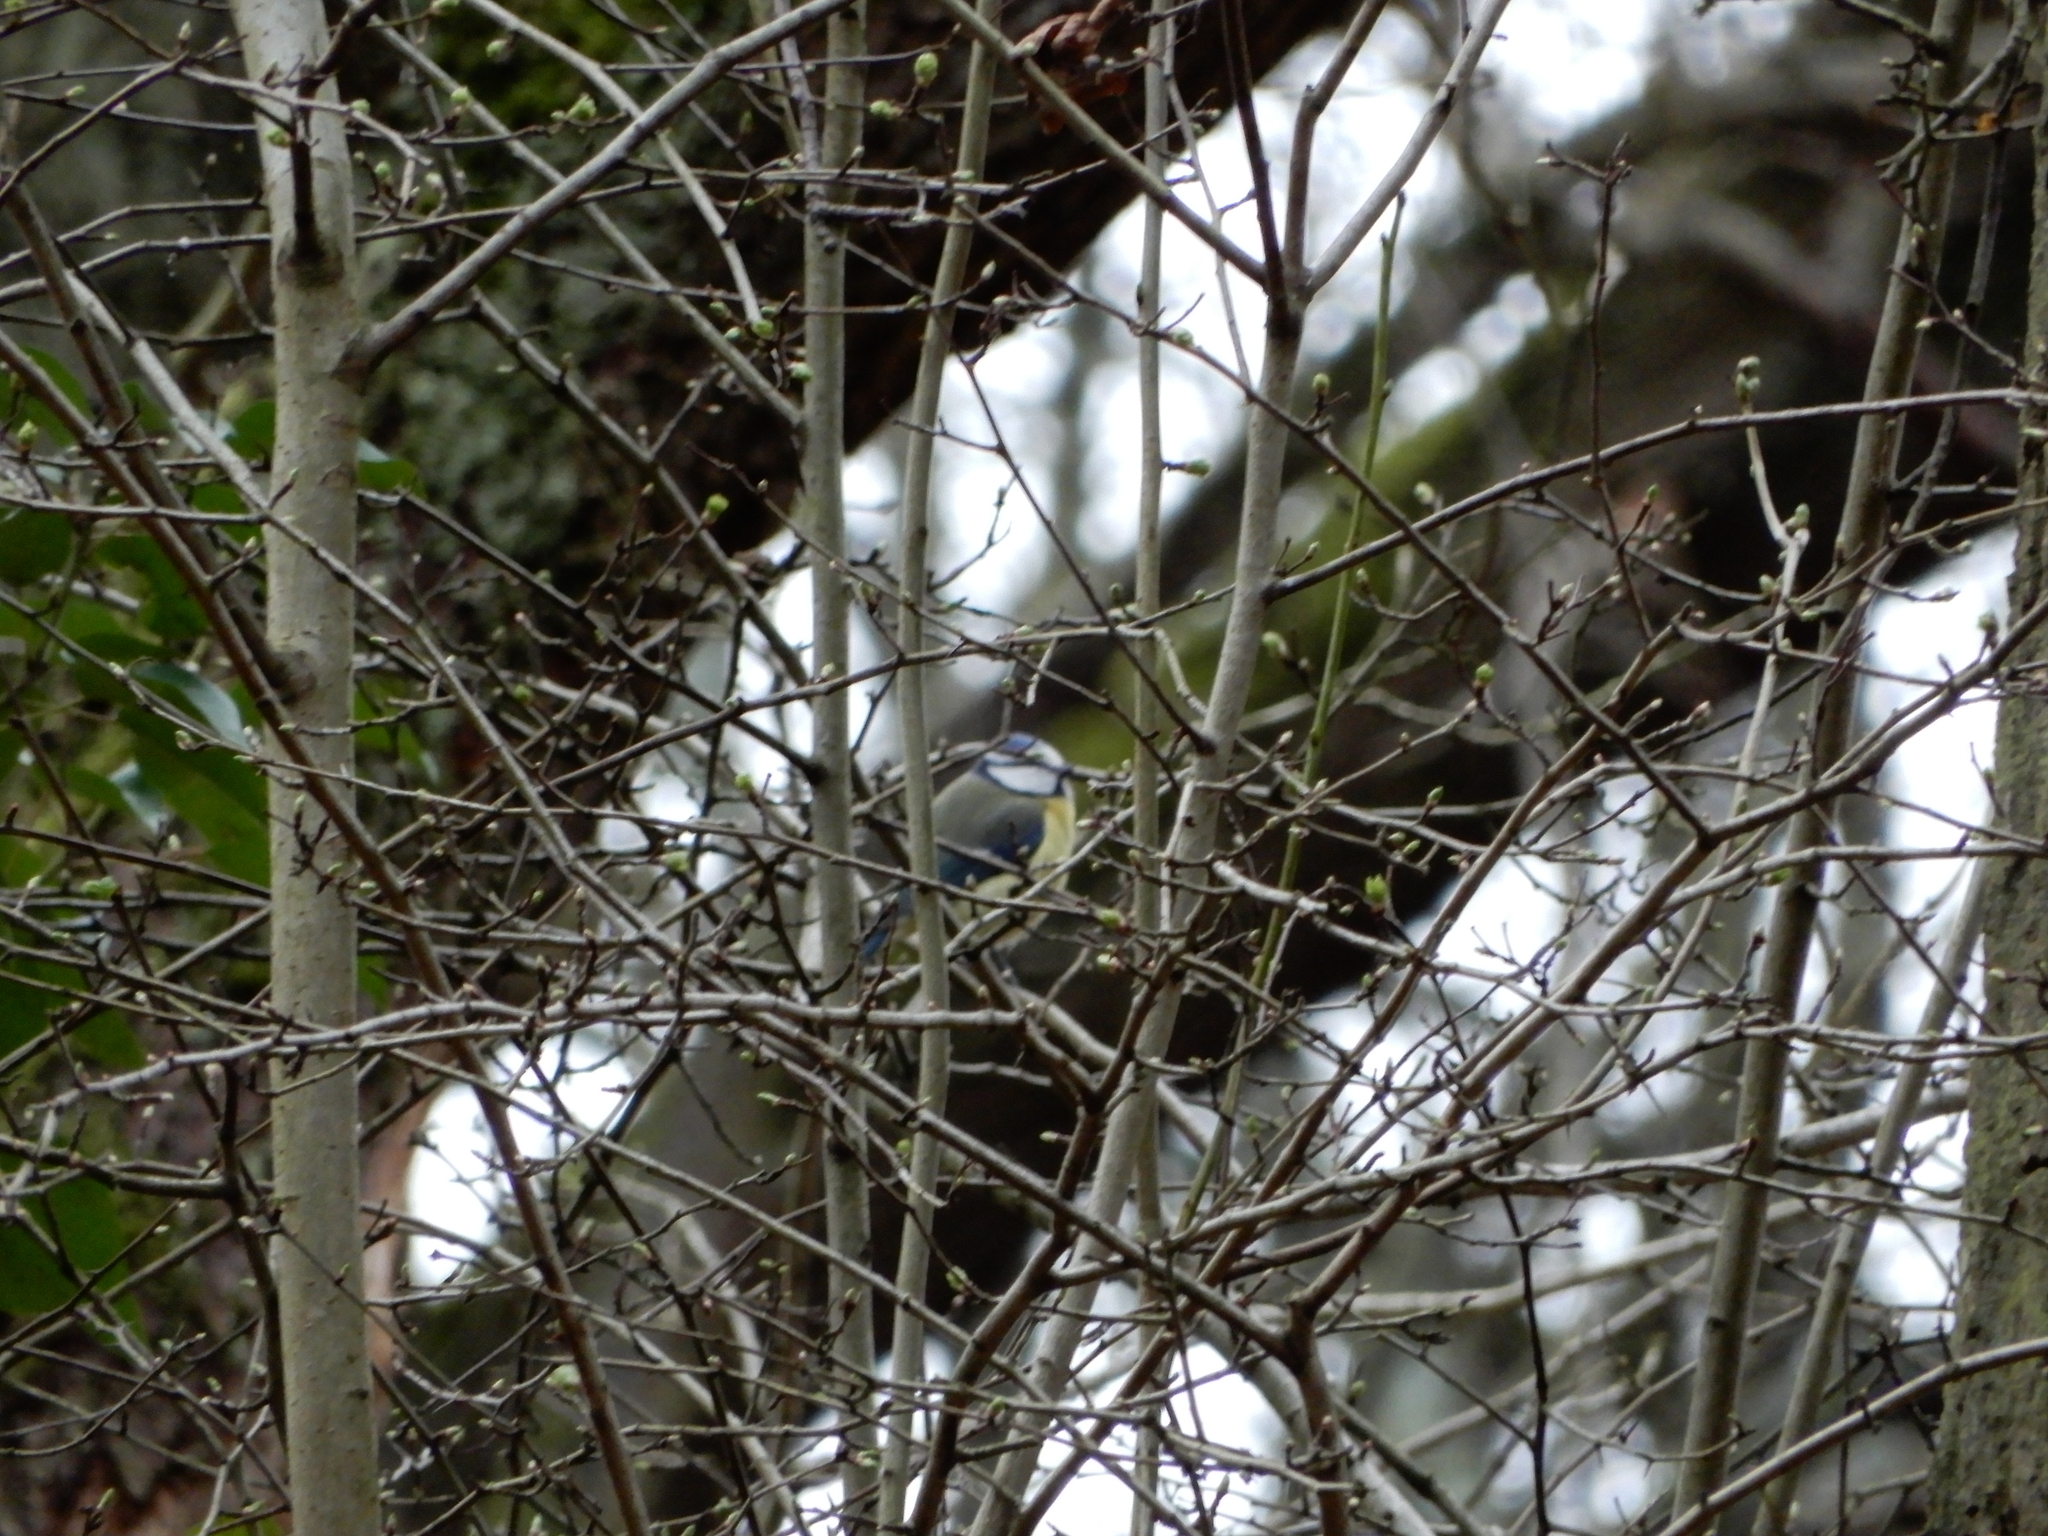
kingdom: Animalia
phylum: Chordata
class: Aves
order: Passeriformes
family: Paridae
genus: Cyanistes
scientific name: Cyanistes caeruleus
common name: Eurasian blue tit
